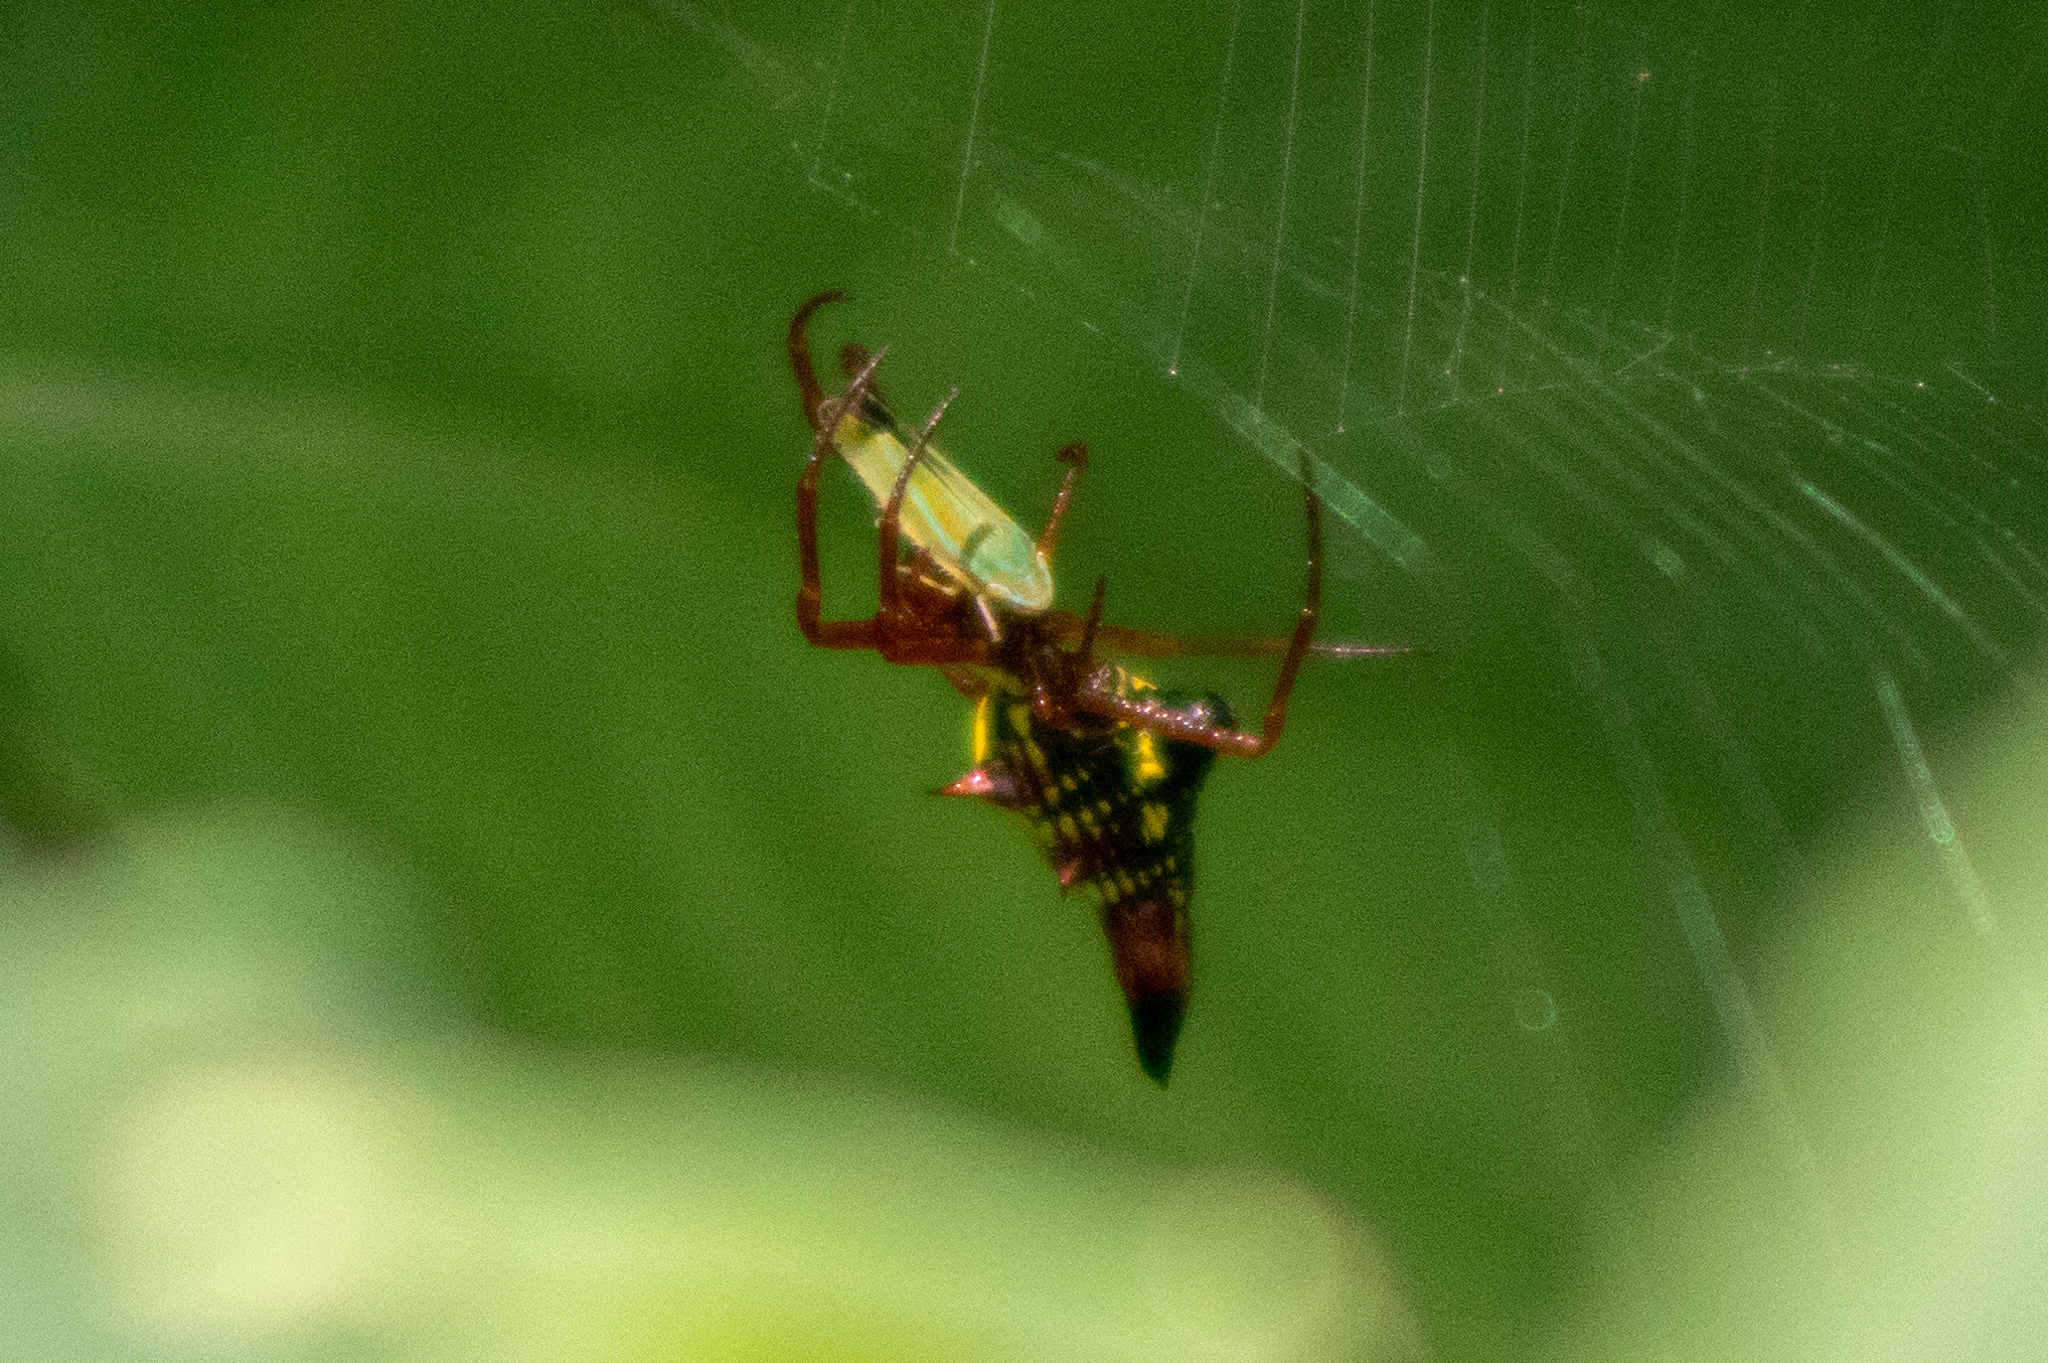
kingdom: Animalia
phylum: Arthropoda
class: Arachnida
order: Araneae
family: Araneidae
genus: Micrathena
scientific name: Micrathena sagittata
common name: Orb weavers
